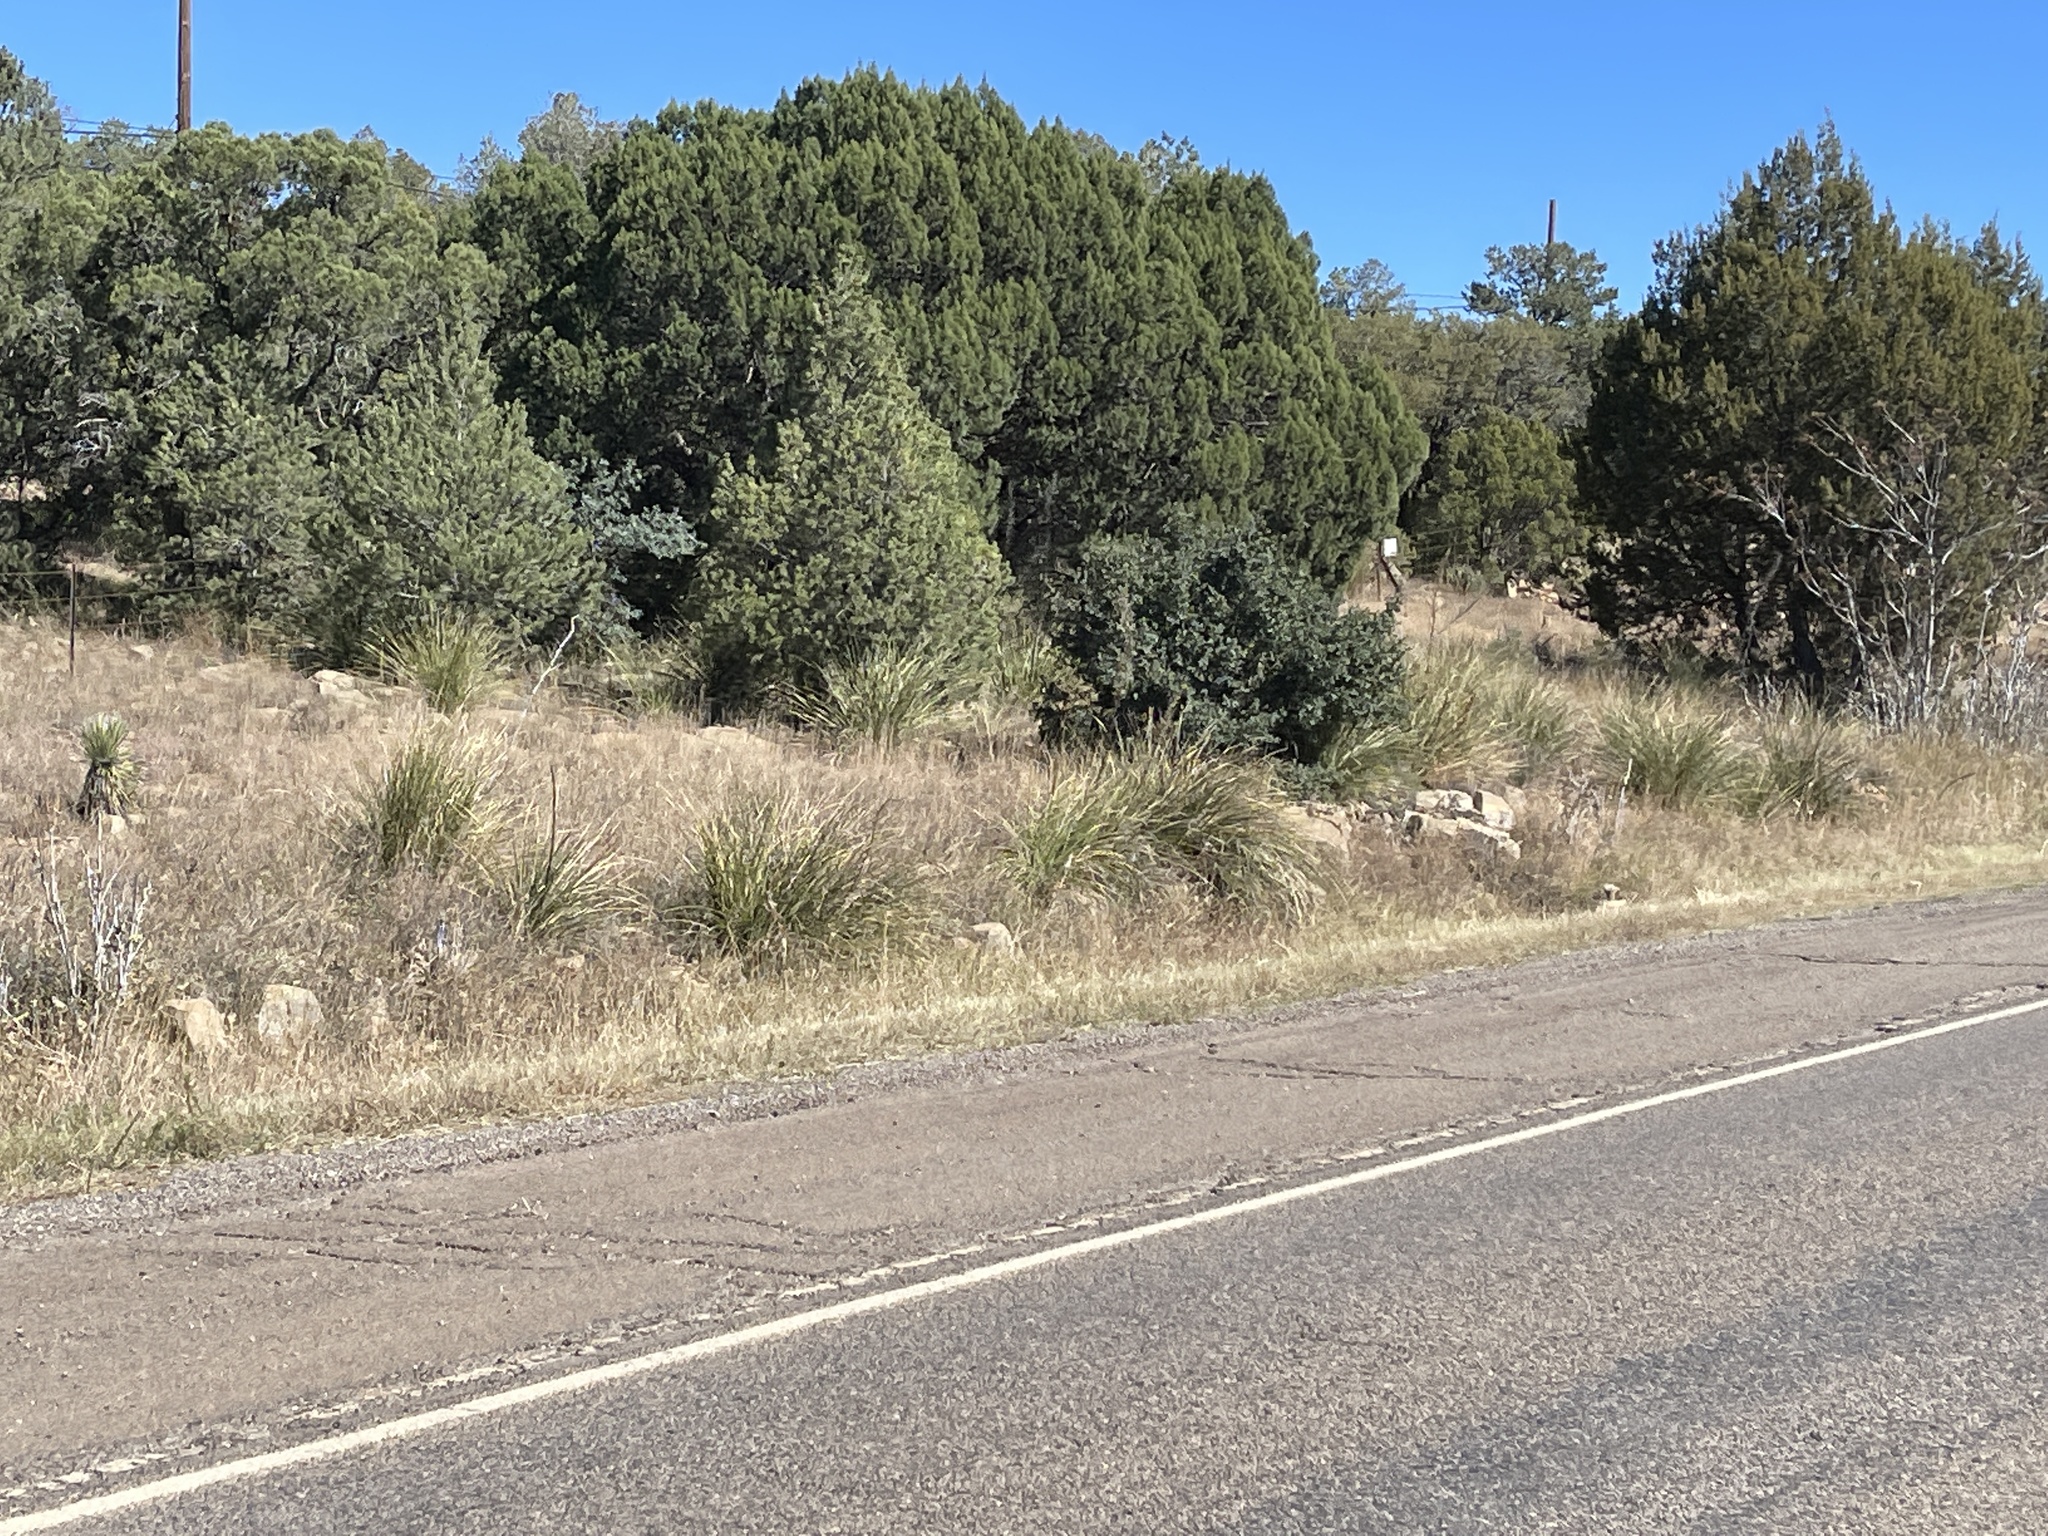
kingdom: Plantae
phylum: Tracheophyta
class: Liliopsida
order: Asparagales
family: Asparagaceae
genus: Nolina
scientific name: Nolina microcarpa
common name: Bear-grass
